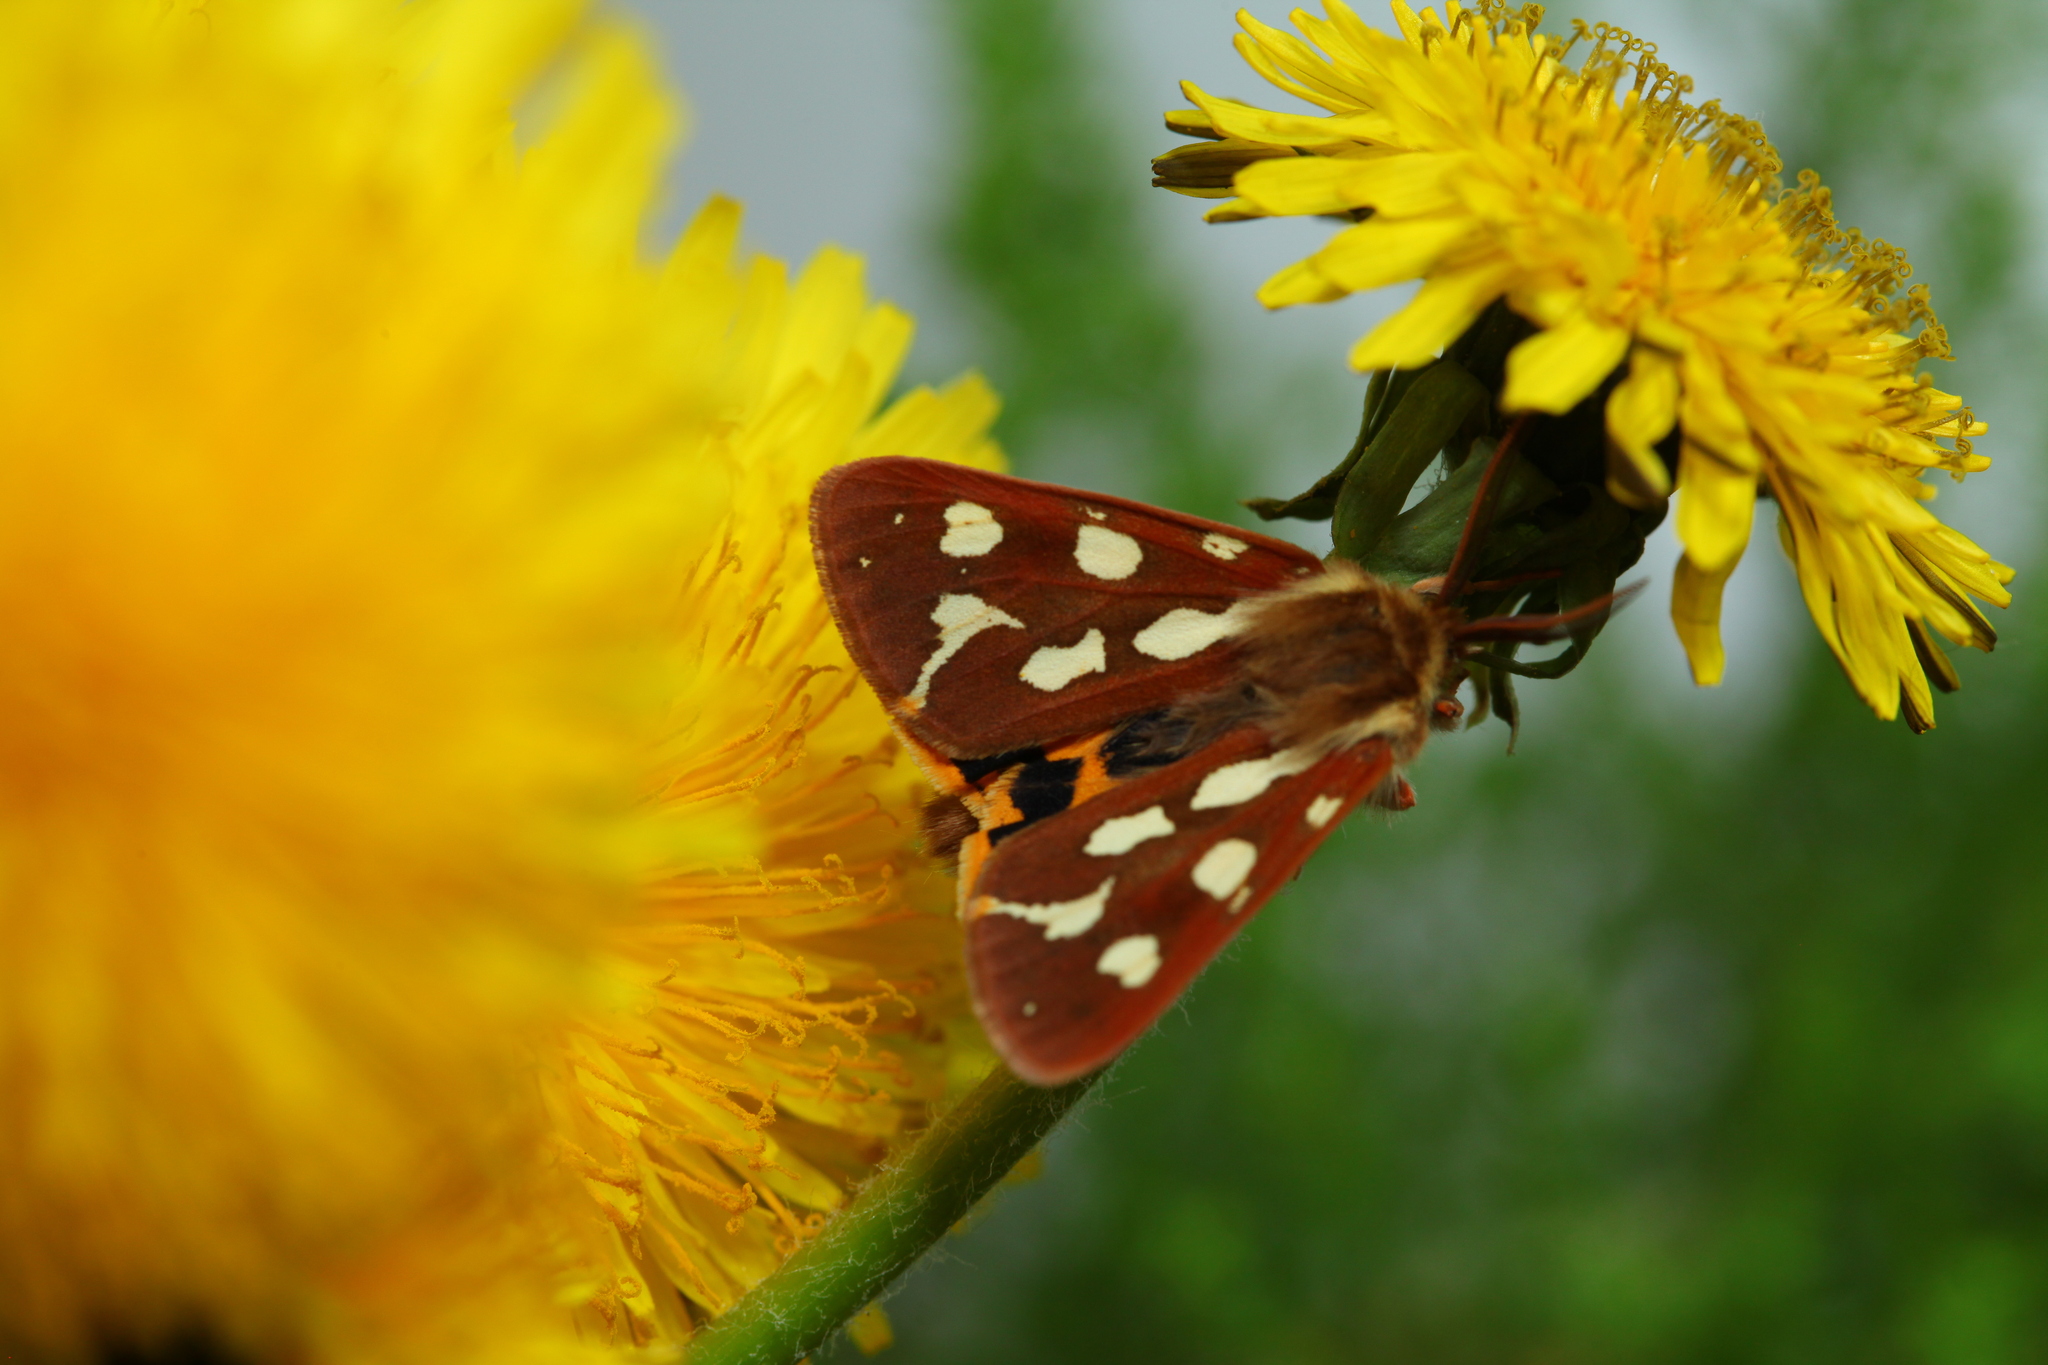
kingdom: Animalia
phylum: Arthropoda
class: Insecta
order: Lepidoptera
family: Erebidae
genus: Hyphoraia
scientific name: Hyphoraia aulica
